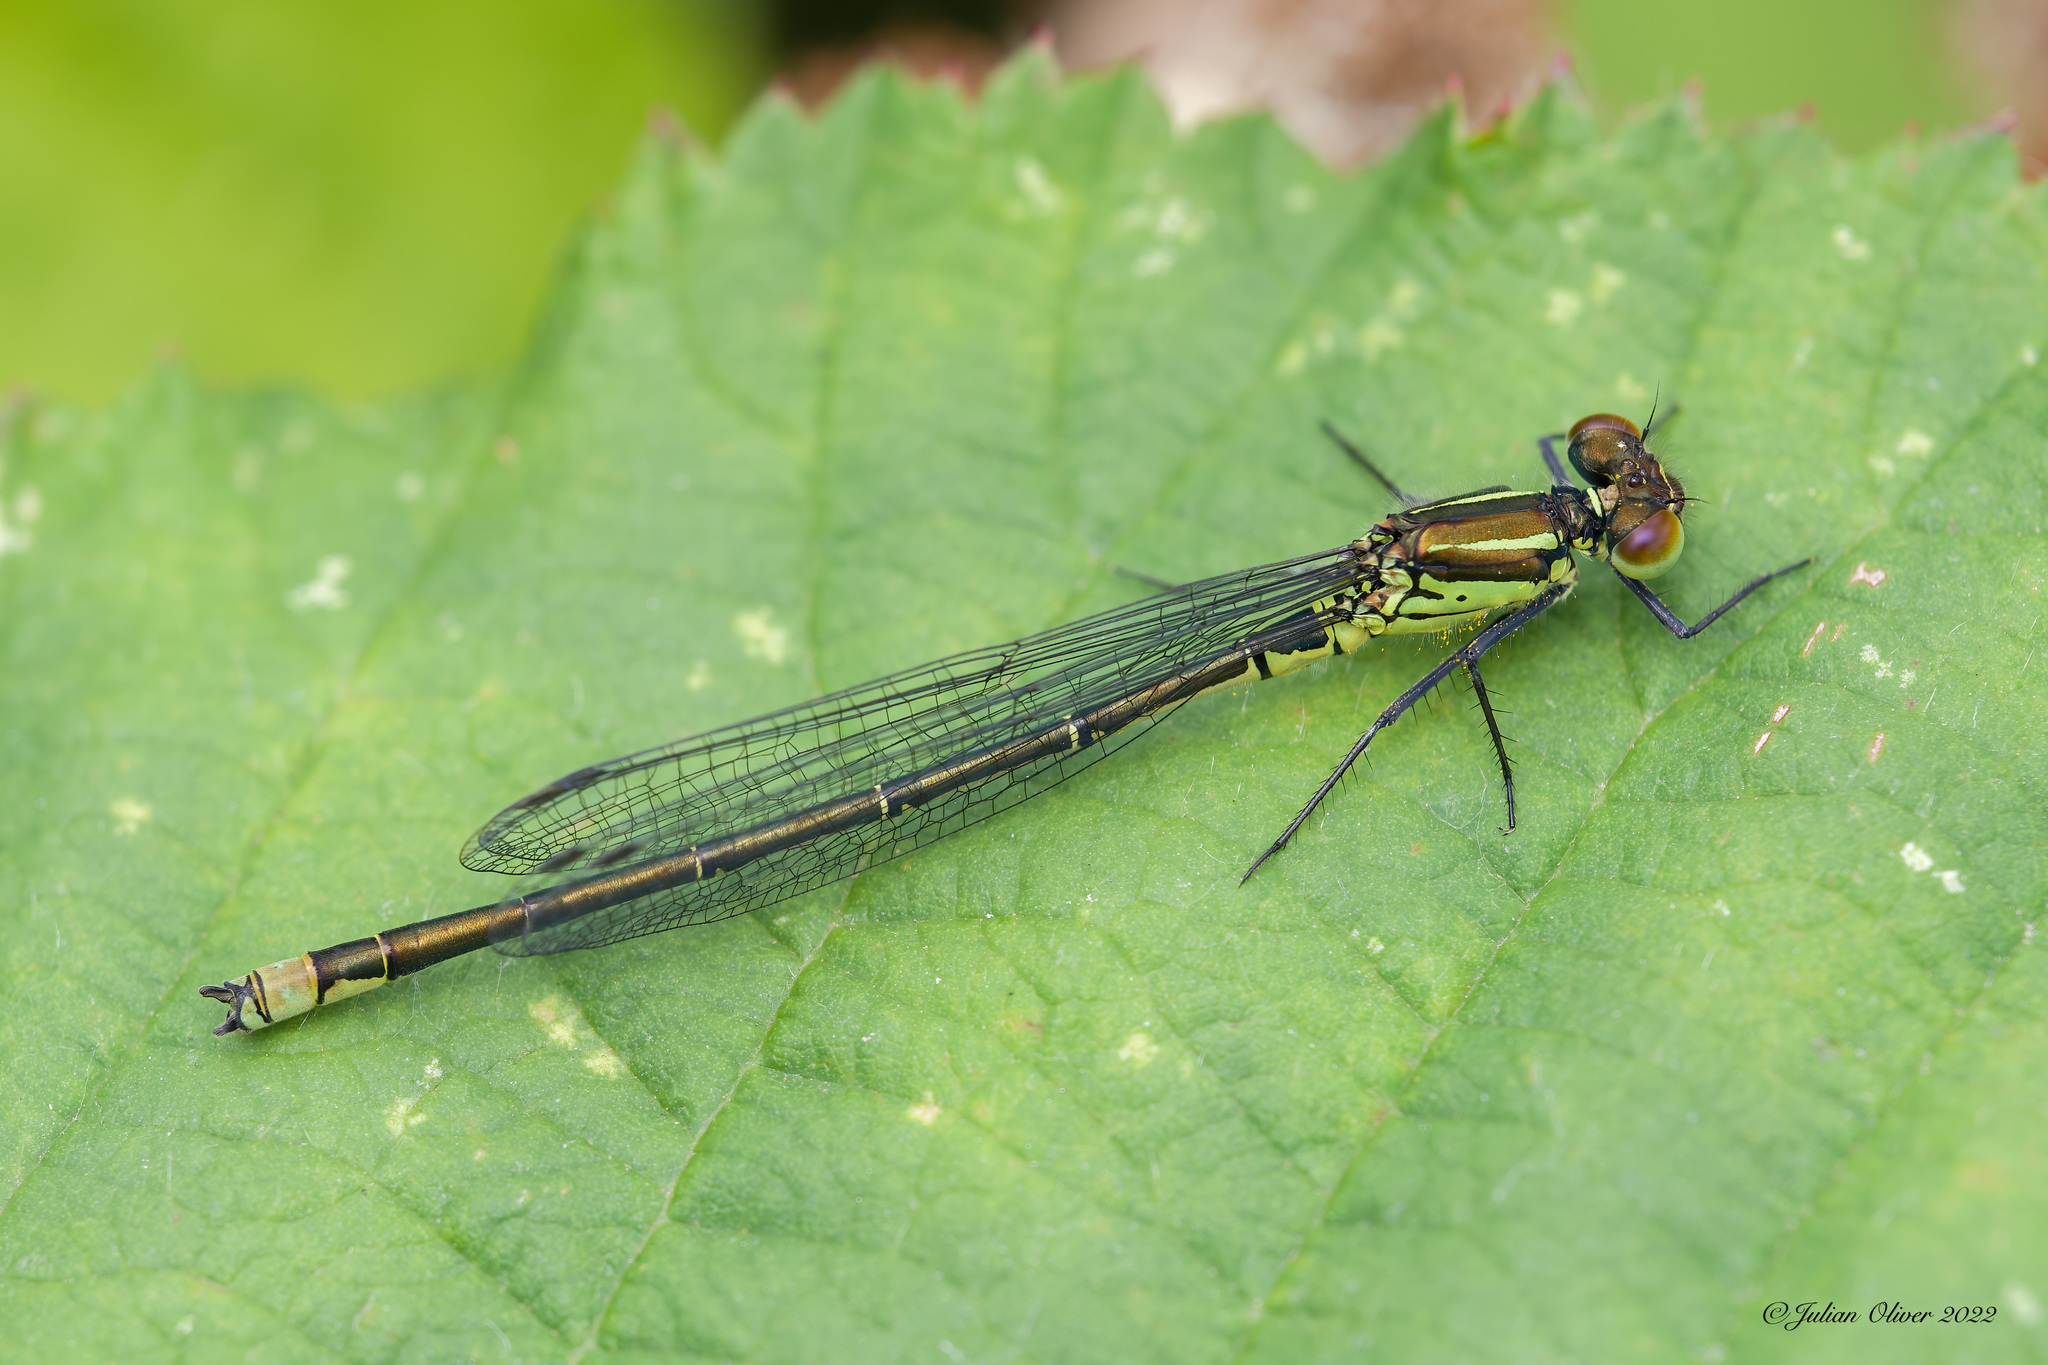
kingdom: Animalia
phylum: Arthropoda
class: Insecta
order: Odonata
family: Coenagrionidae
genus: Erythromma
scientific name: Erythromma najas
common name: Red-eyed damselfly
